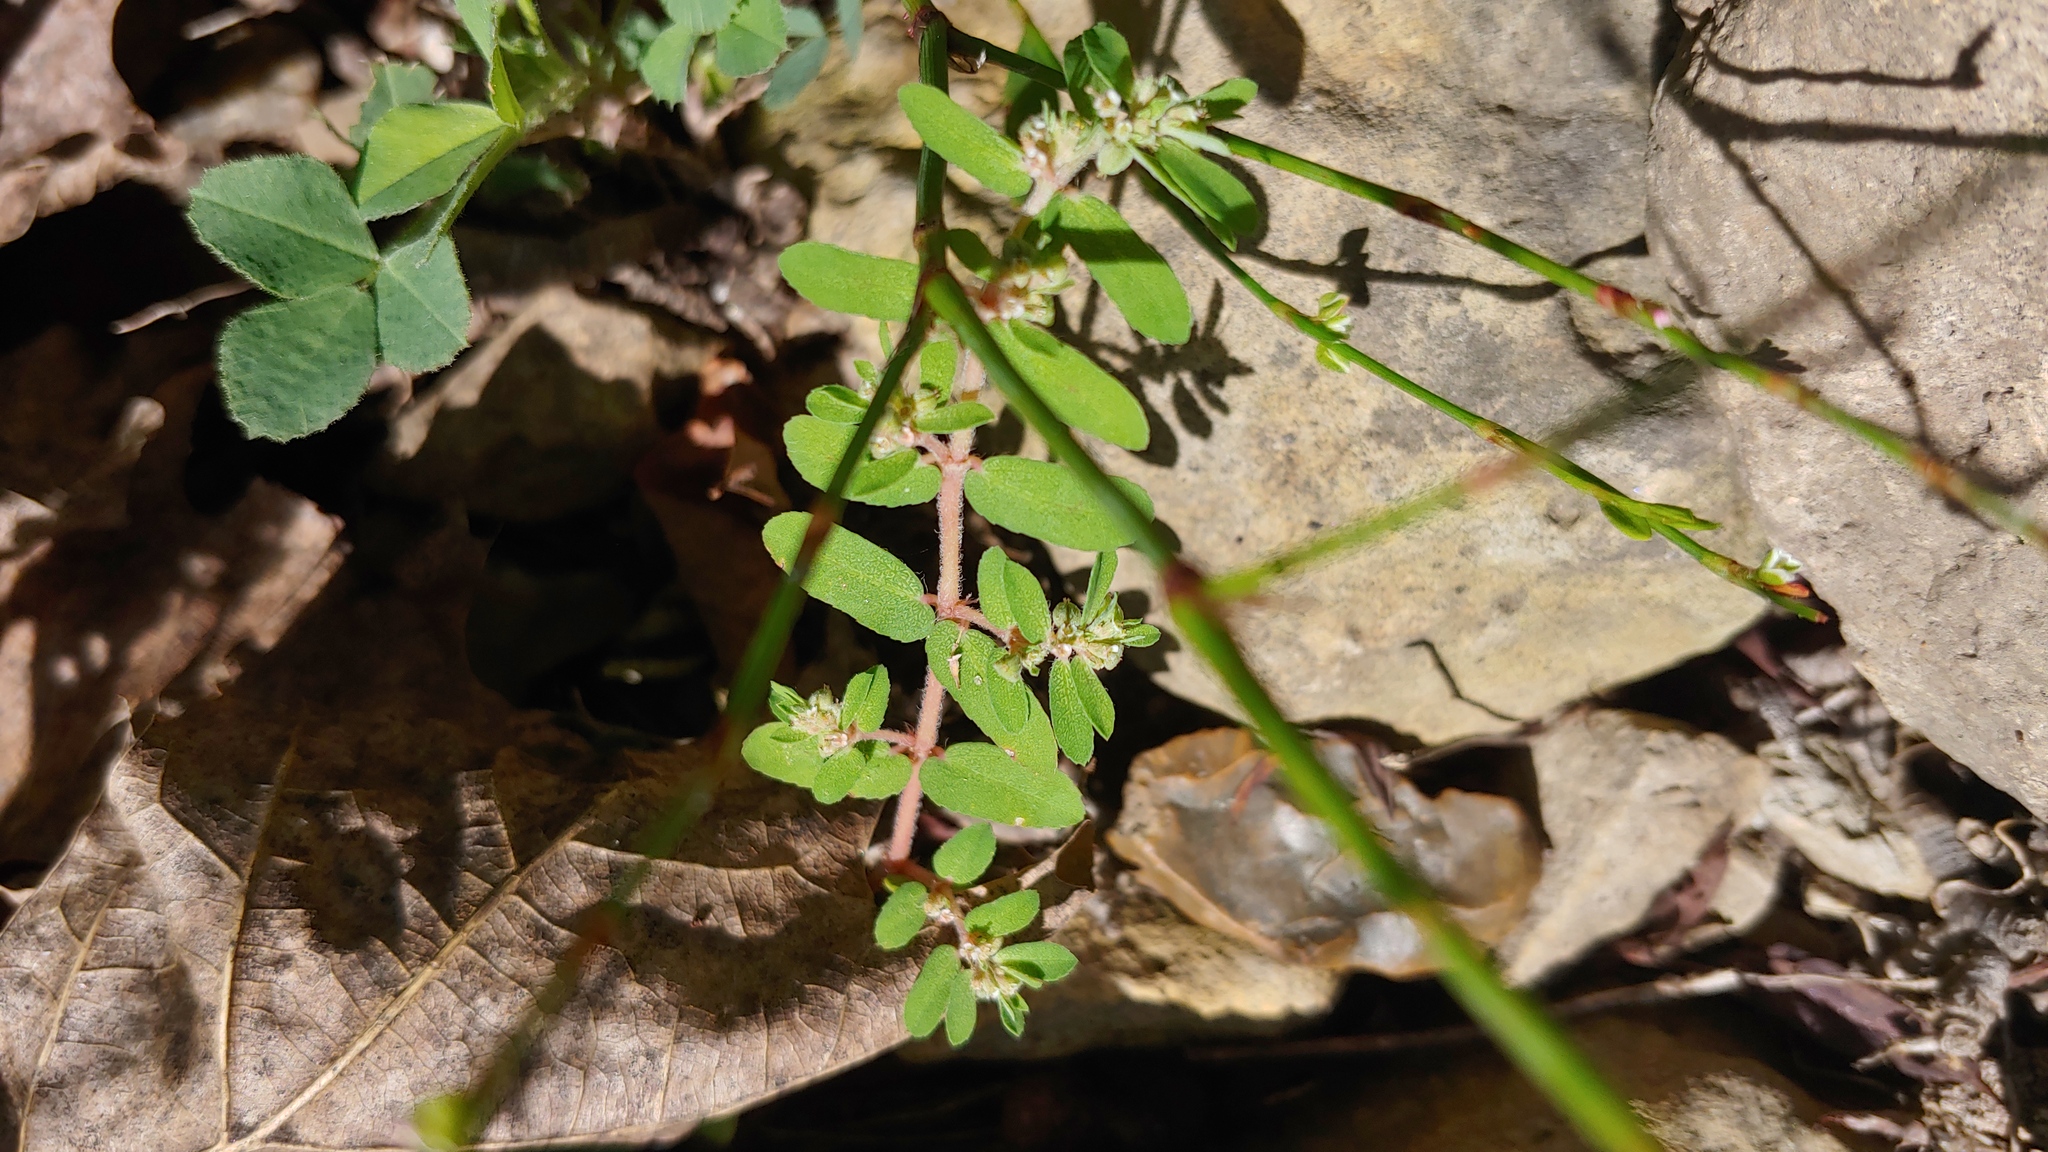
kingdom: Plantae
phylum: Tracheophyta
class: Magnoliopsida
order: Malpighiales
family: Euphorbiaceae
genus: Euphorbia
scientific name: Euphorbia maculata
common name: Spotted spurge
